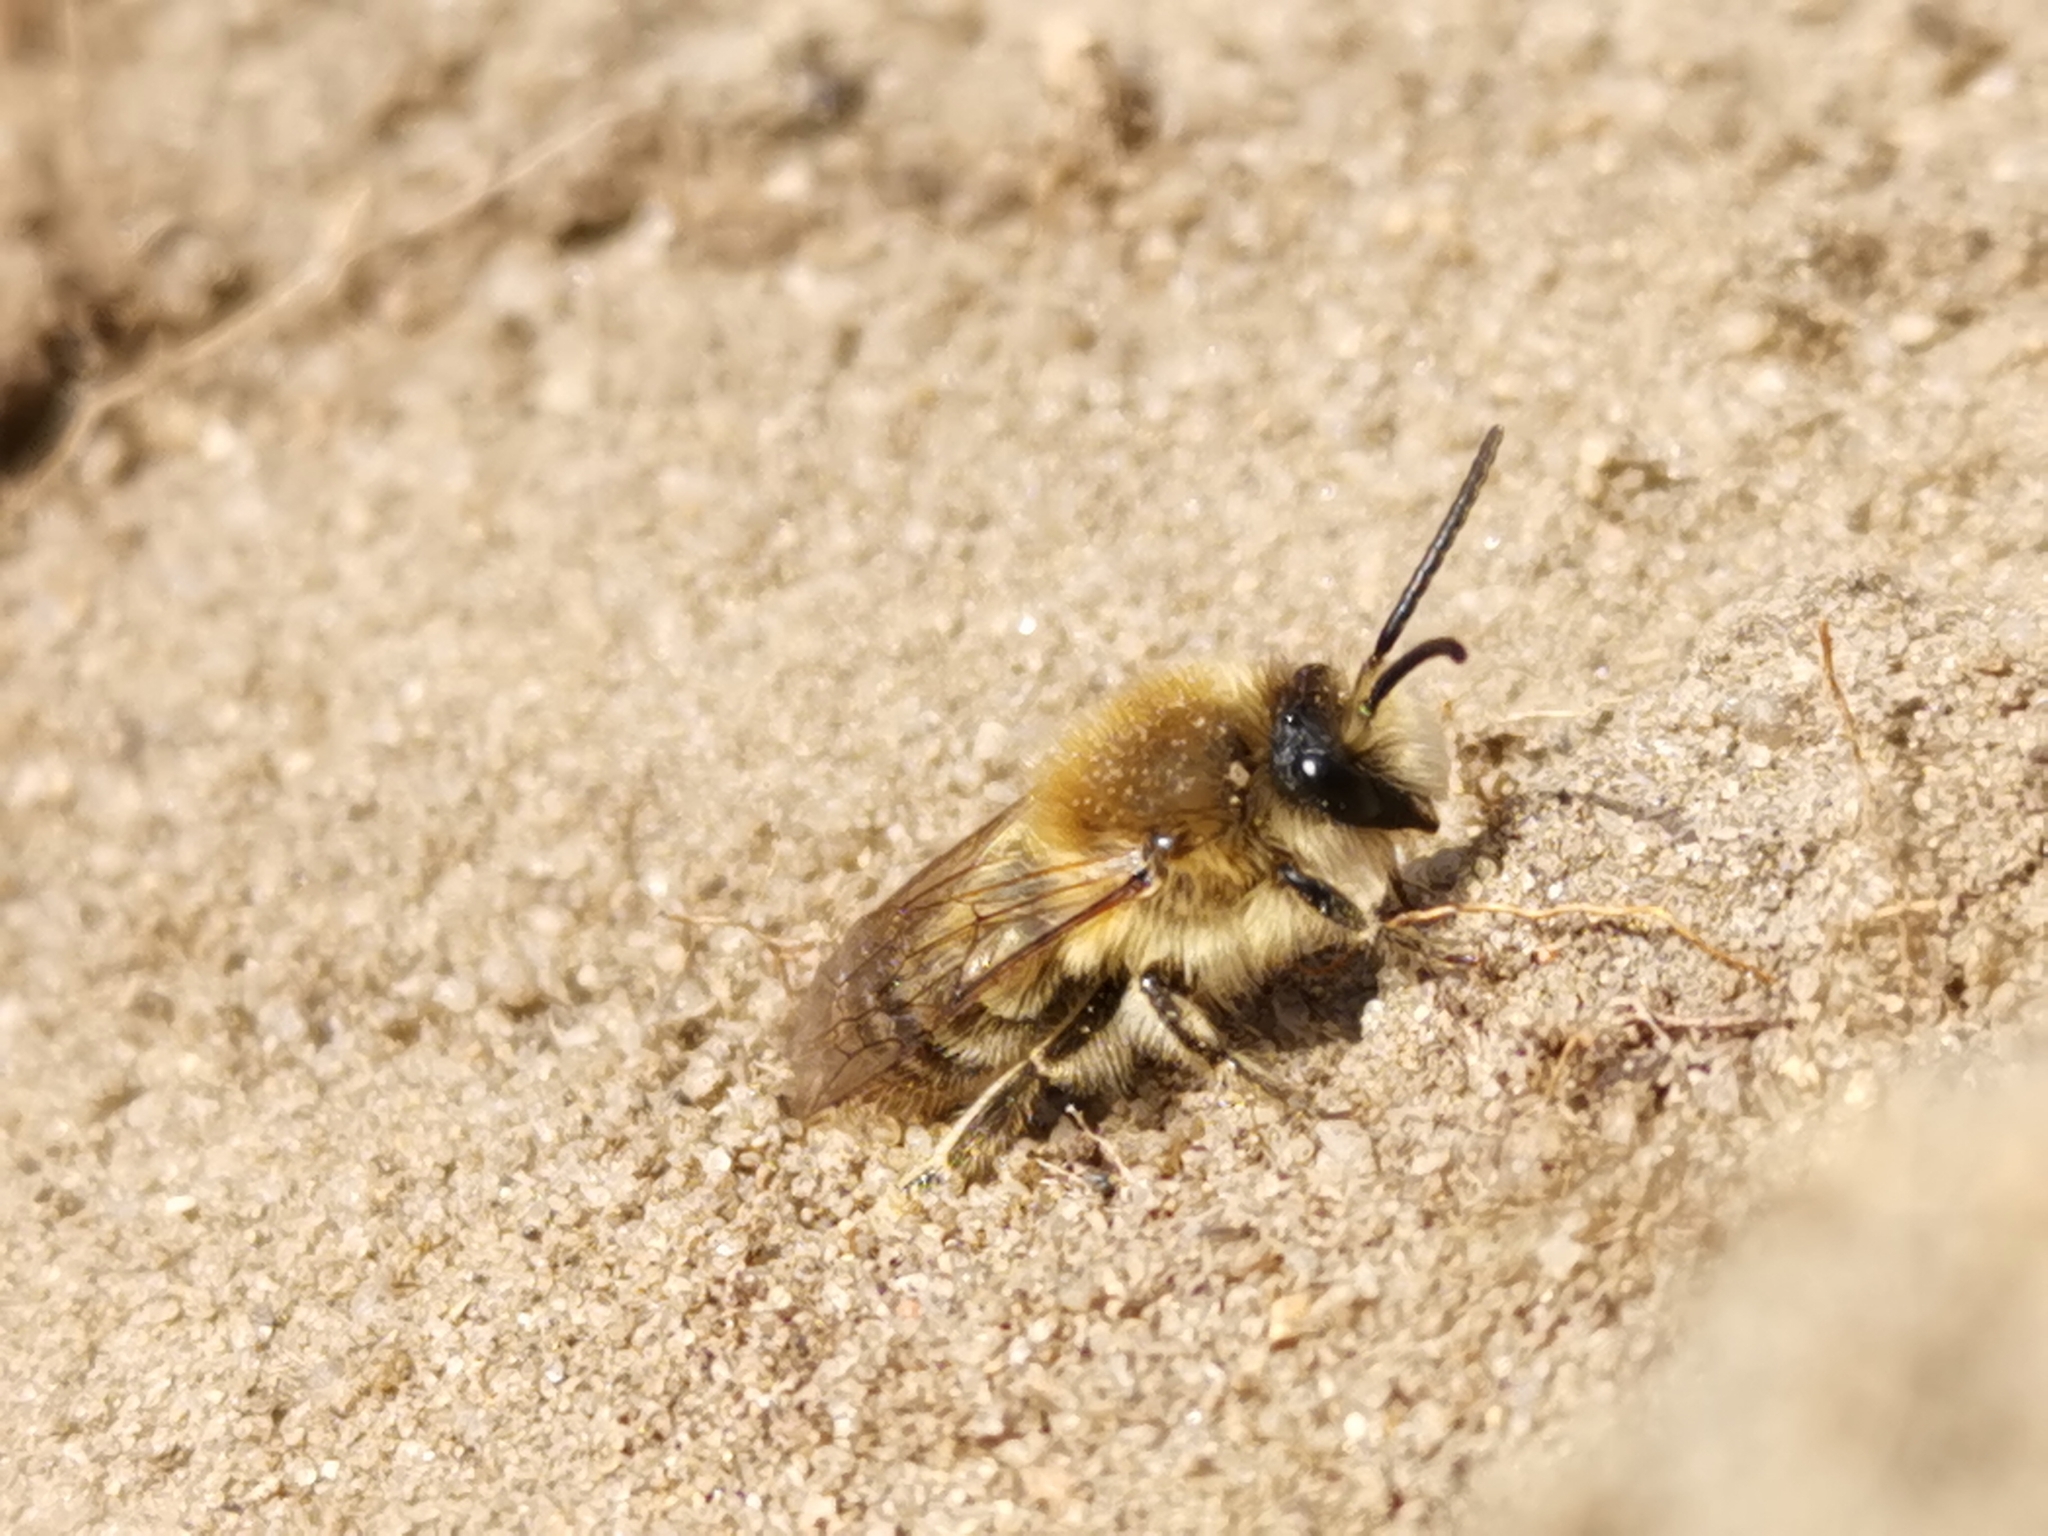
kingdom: Animalia
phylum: Arthropoda
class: Insecta
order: Hymenoptera
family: Colletidae
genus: Colletes
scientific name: Colletes cunicularius
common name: Early colletes
